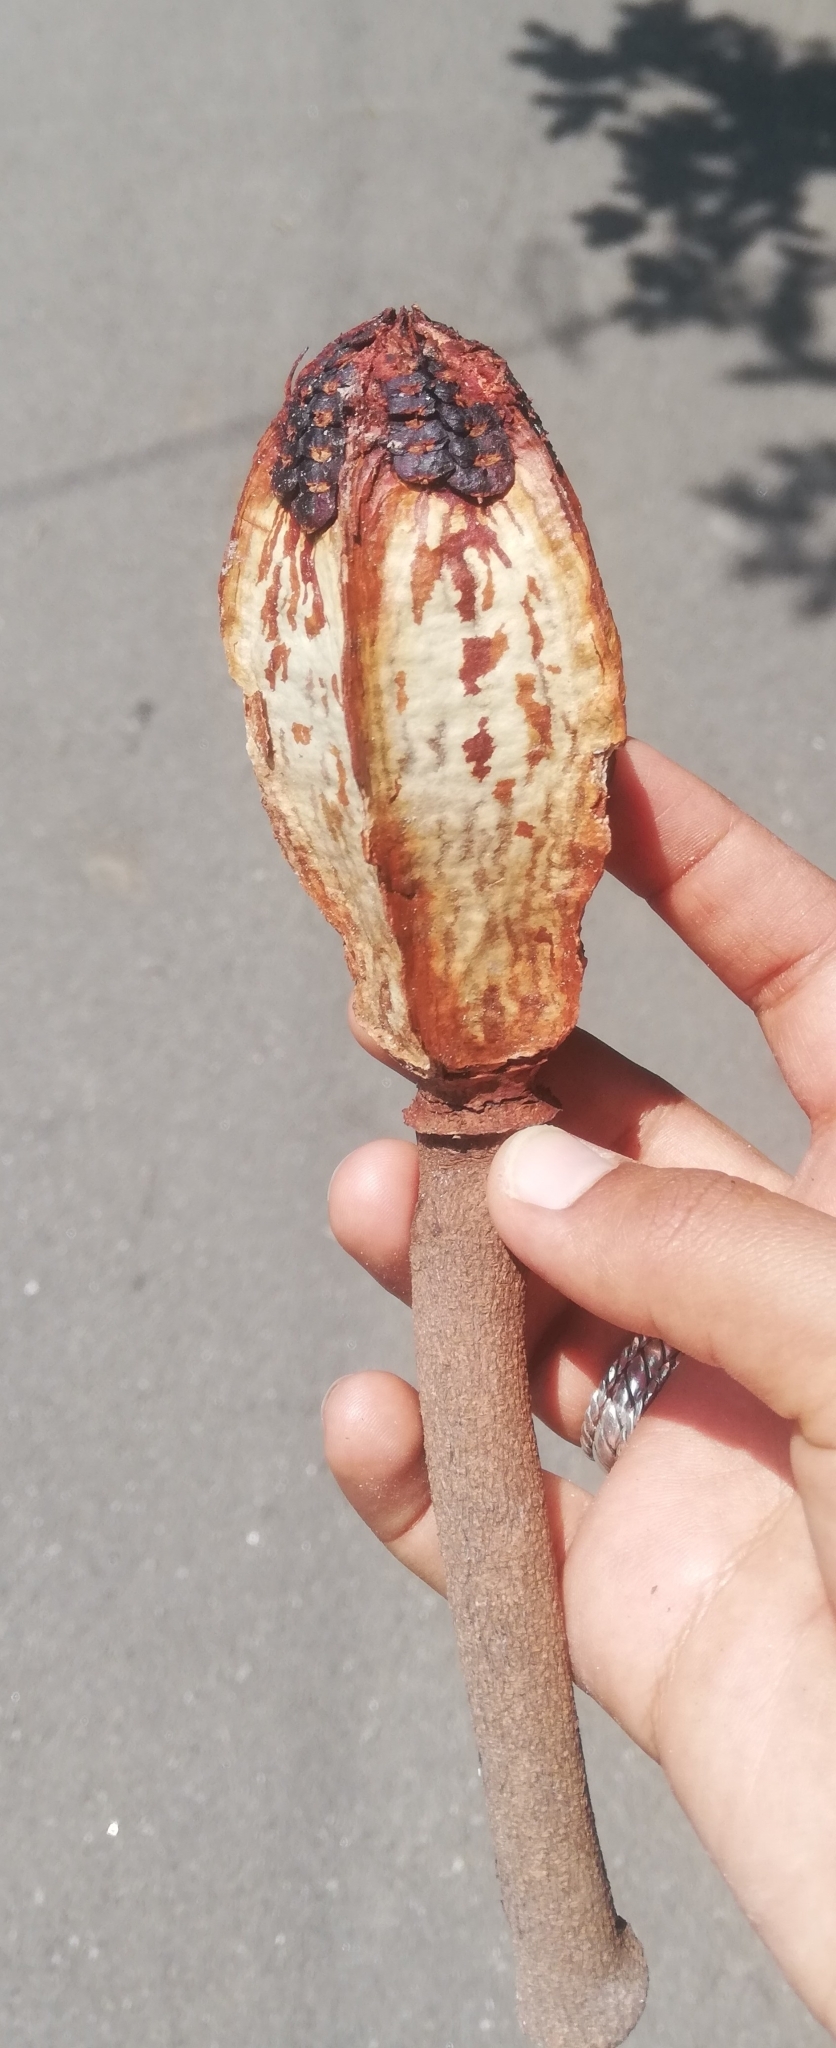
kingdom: Plantae
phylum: Tracheophyta
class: Magnoliopsida
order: Sapindales
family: Meliaceae
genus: Swietenia
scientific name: Swietenia macrophylla
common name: Honduras mahogany
